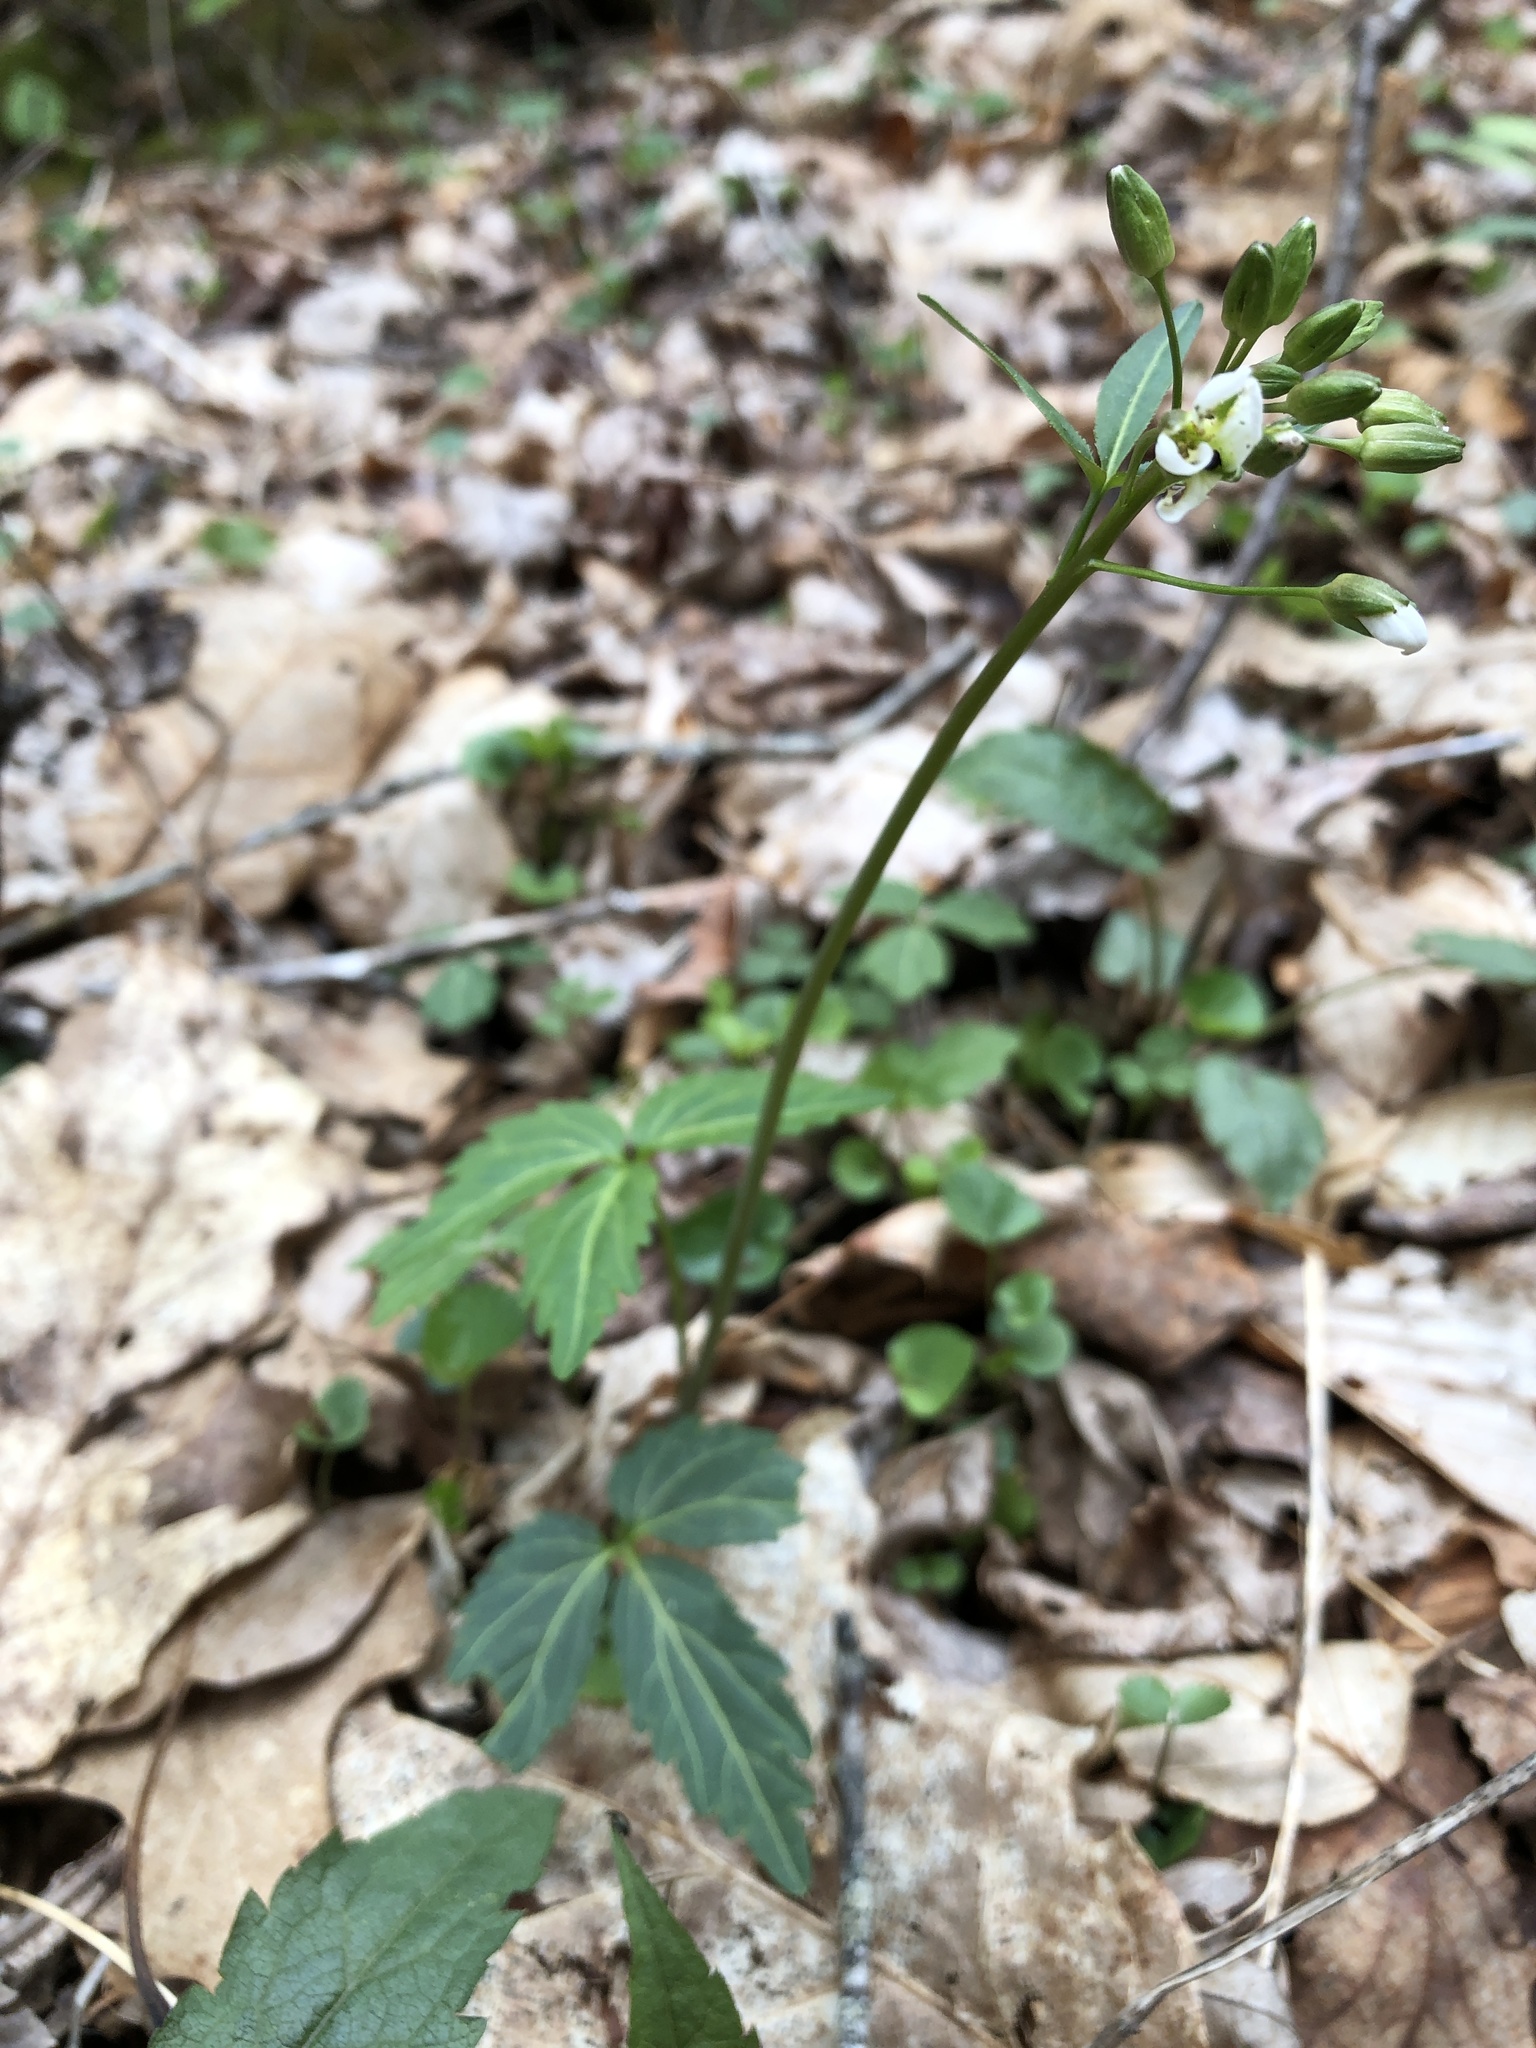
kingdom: Plantae
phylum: Tracheophyta
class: Magnoliopsida
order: Brassicales
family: Brassicaceae
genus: Cardamine
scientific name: Cardamine angustata
